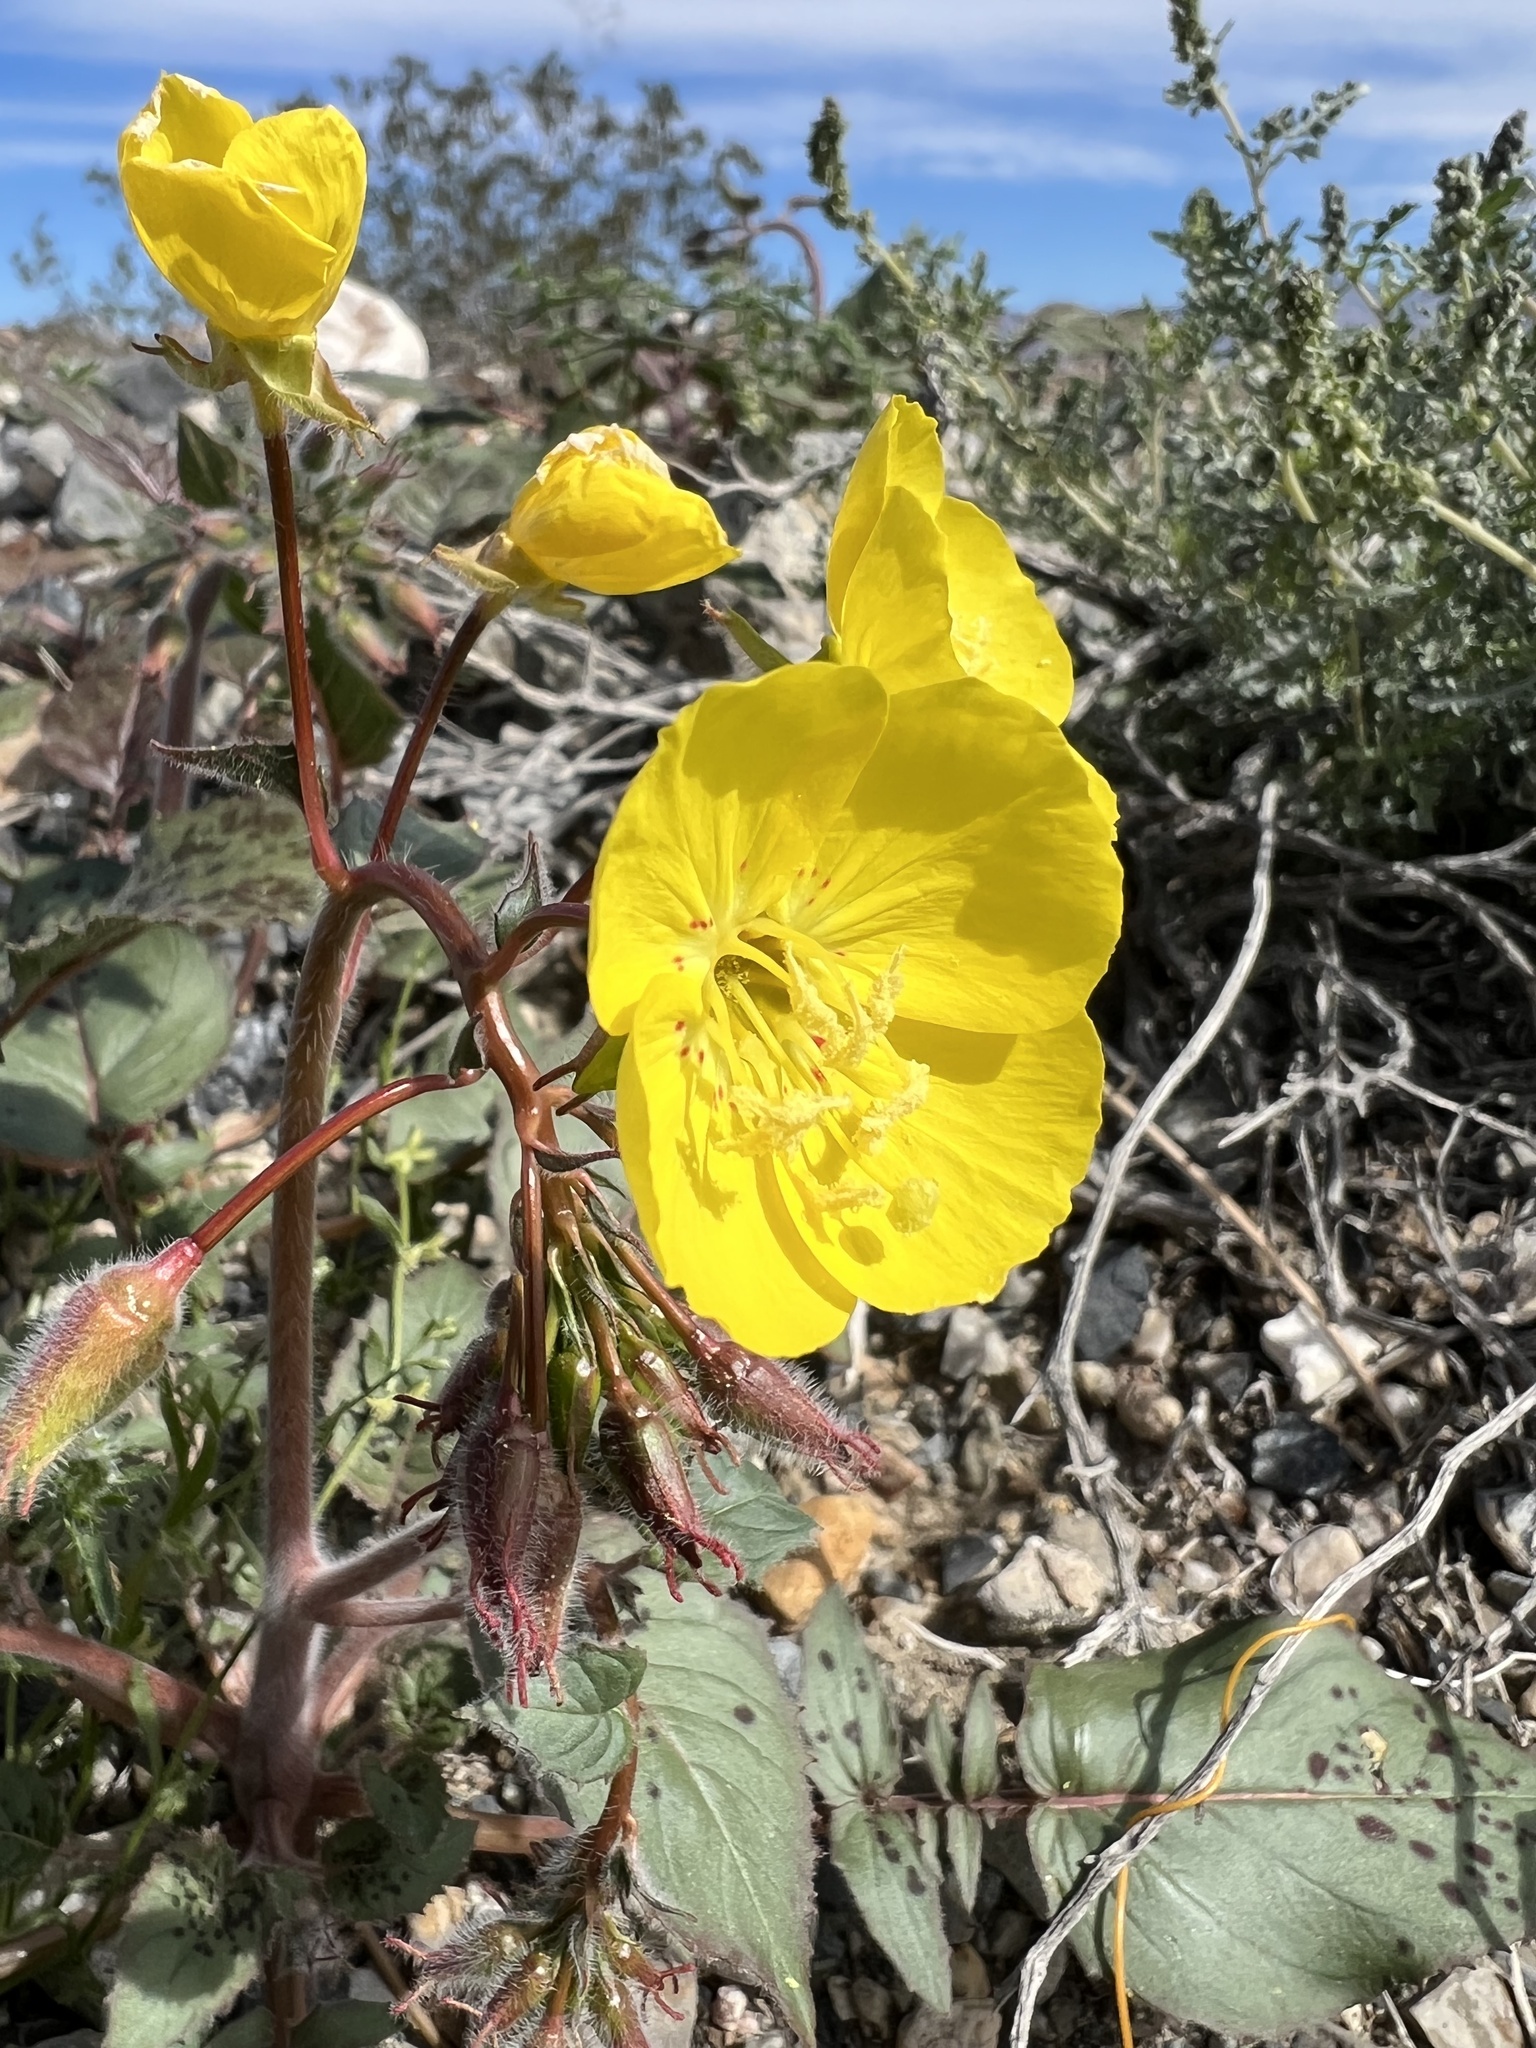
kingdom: Plantae
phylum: Tracheophyta
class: Magnoliopsida
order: Myrtales
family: Onagraceae
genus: Chylismia
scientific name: Chylismia brevipes
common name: Yellow cups
